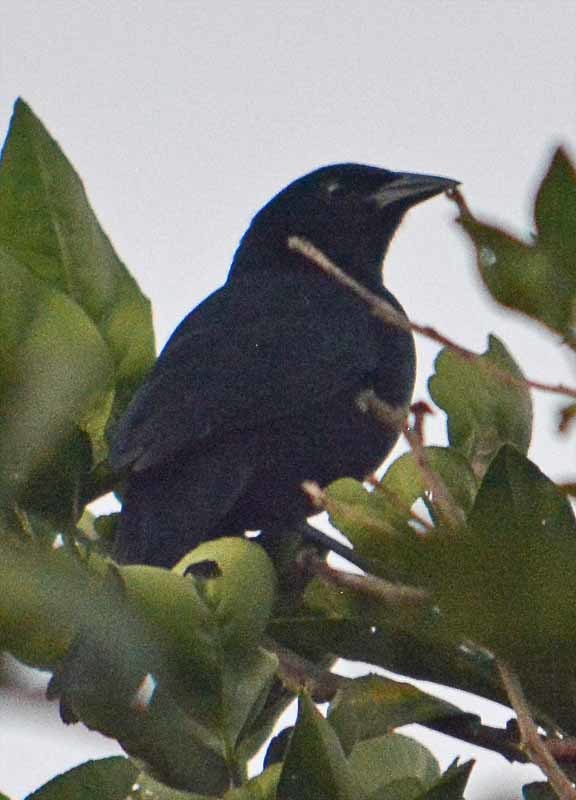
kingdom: Animalia
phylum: Chordata
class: Aves
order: Passeriformes
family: Icteridae
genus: Dives
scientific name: Dives dives
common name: Melodious blackbird
